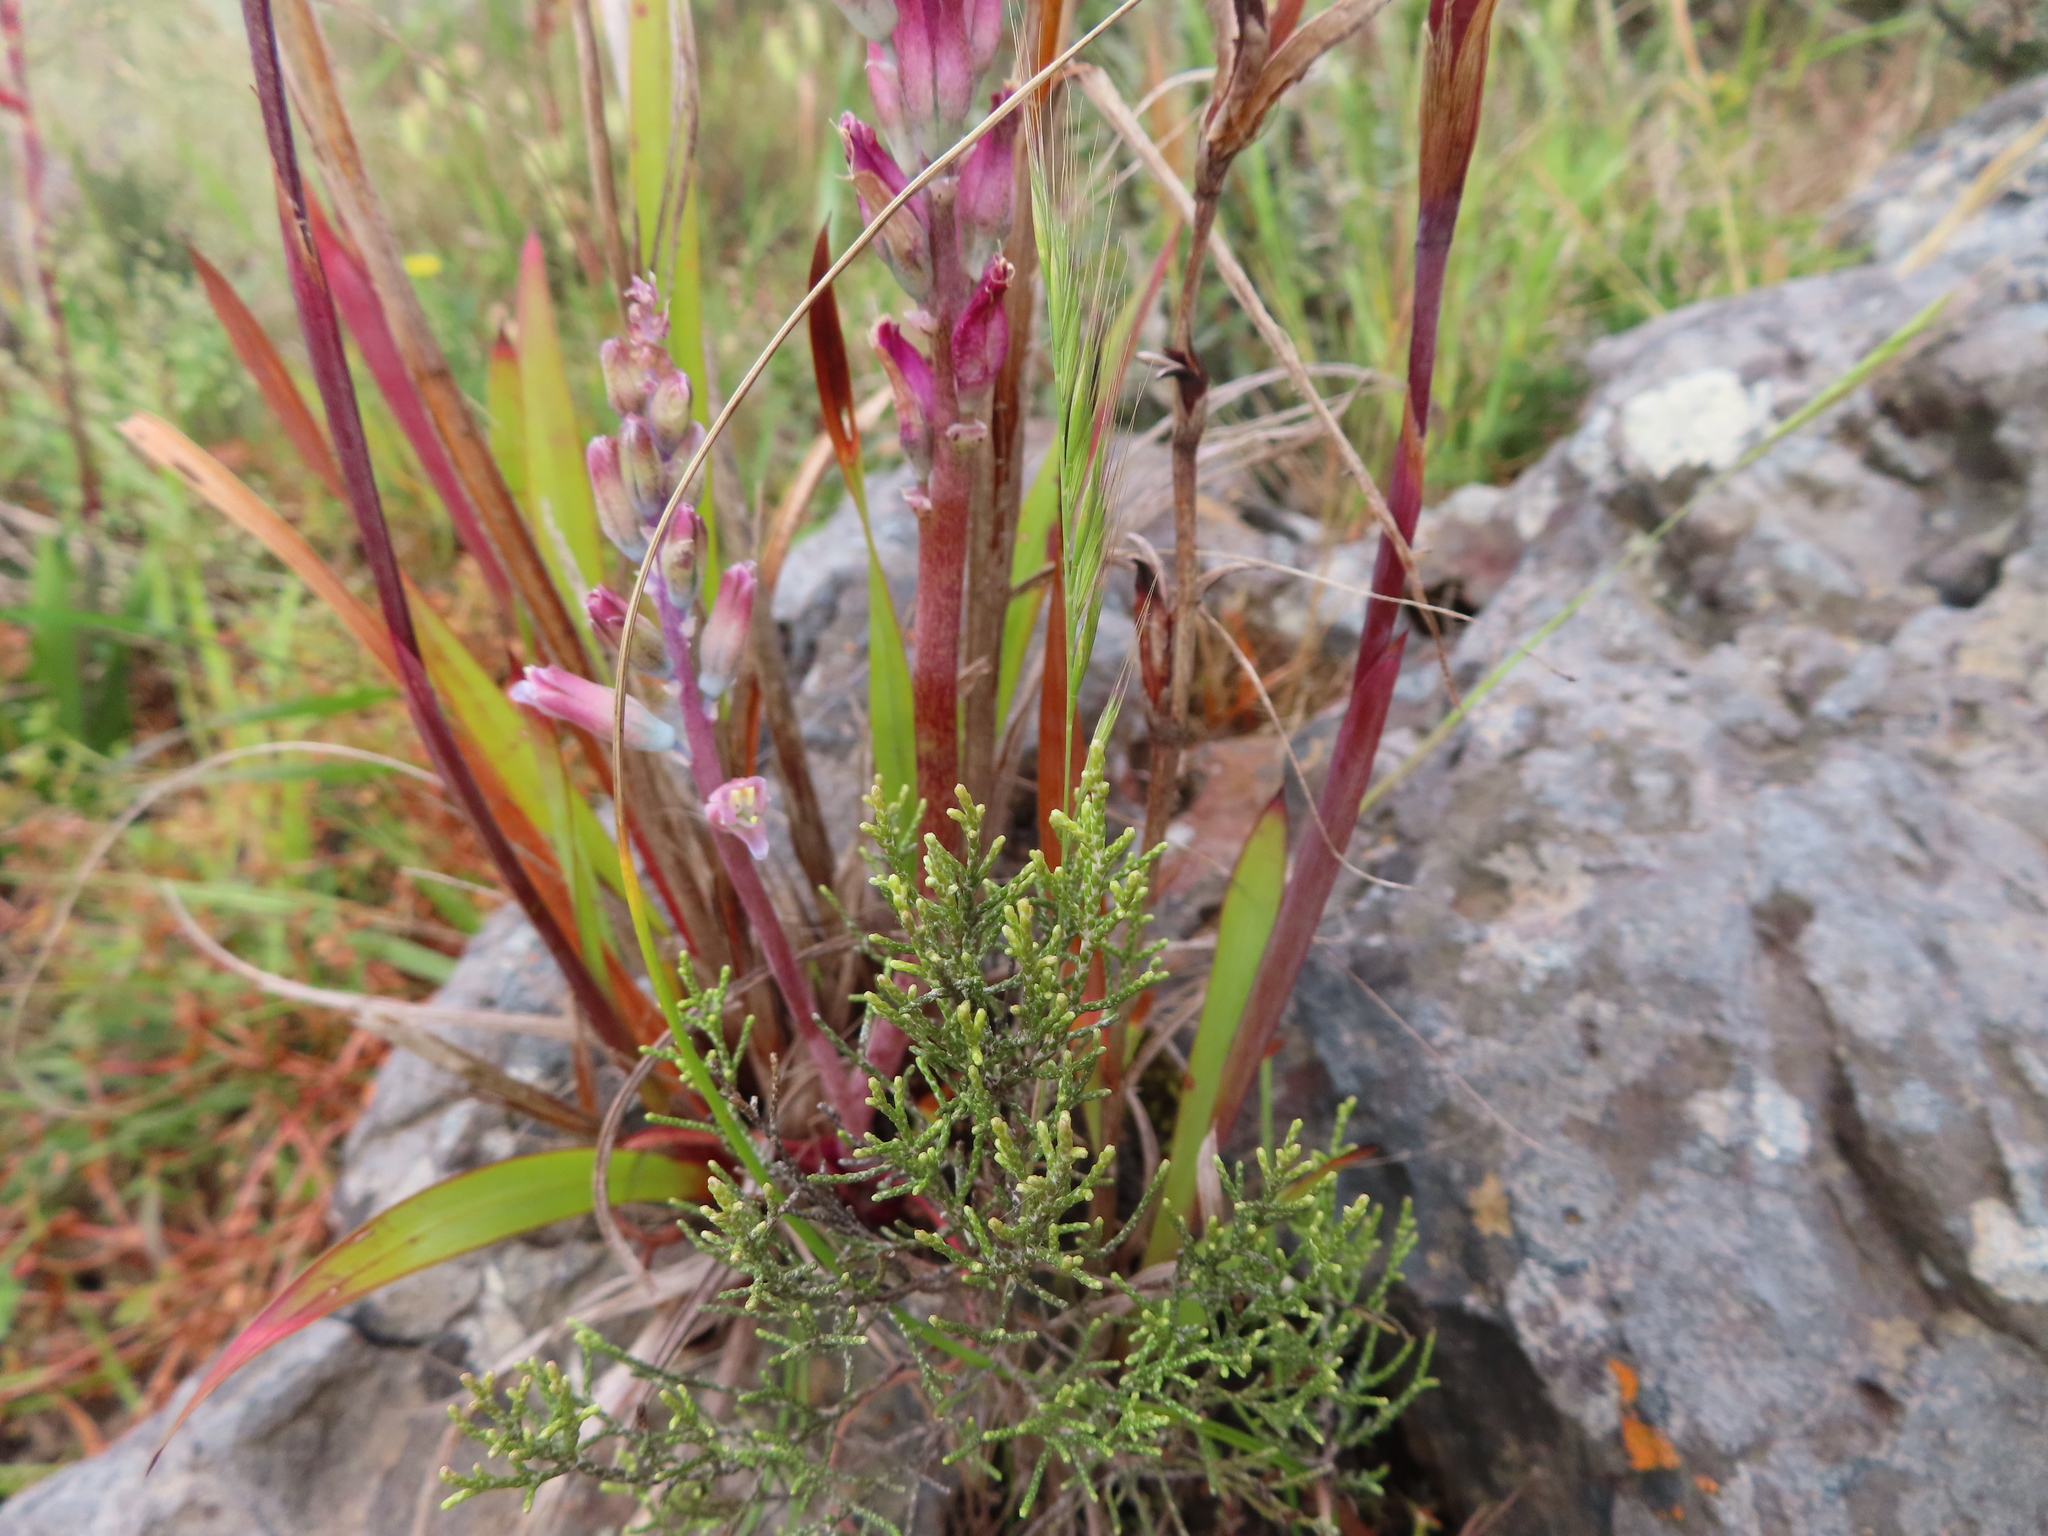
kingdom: Plantae
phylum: Tracheophyta
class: Liliopsida
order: Asparagales
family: Asparagaceae
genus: Lachenalia
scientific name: Lachenalia salteri
